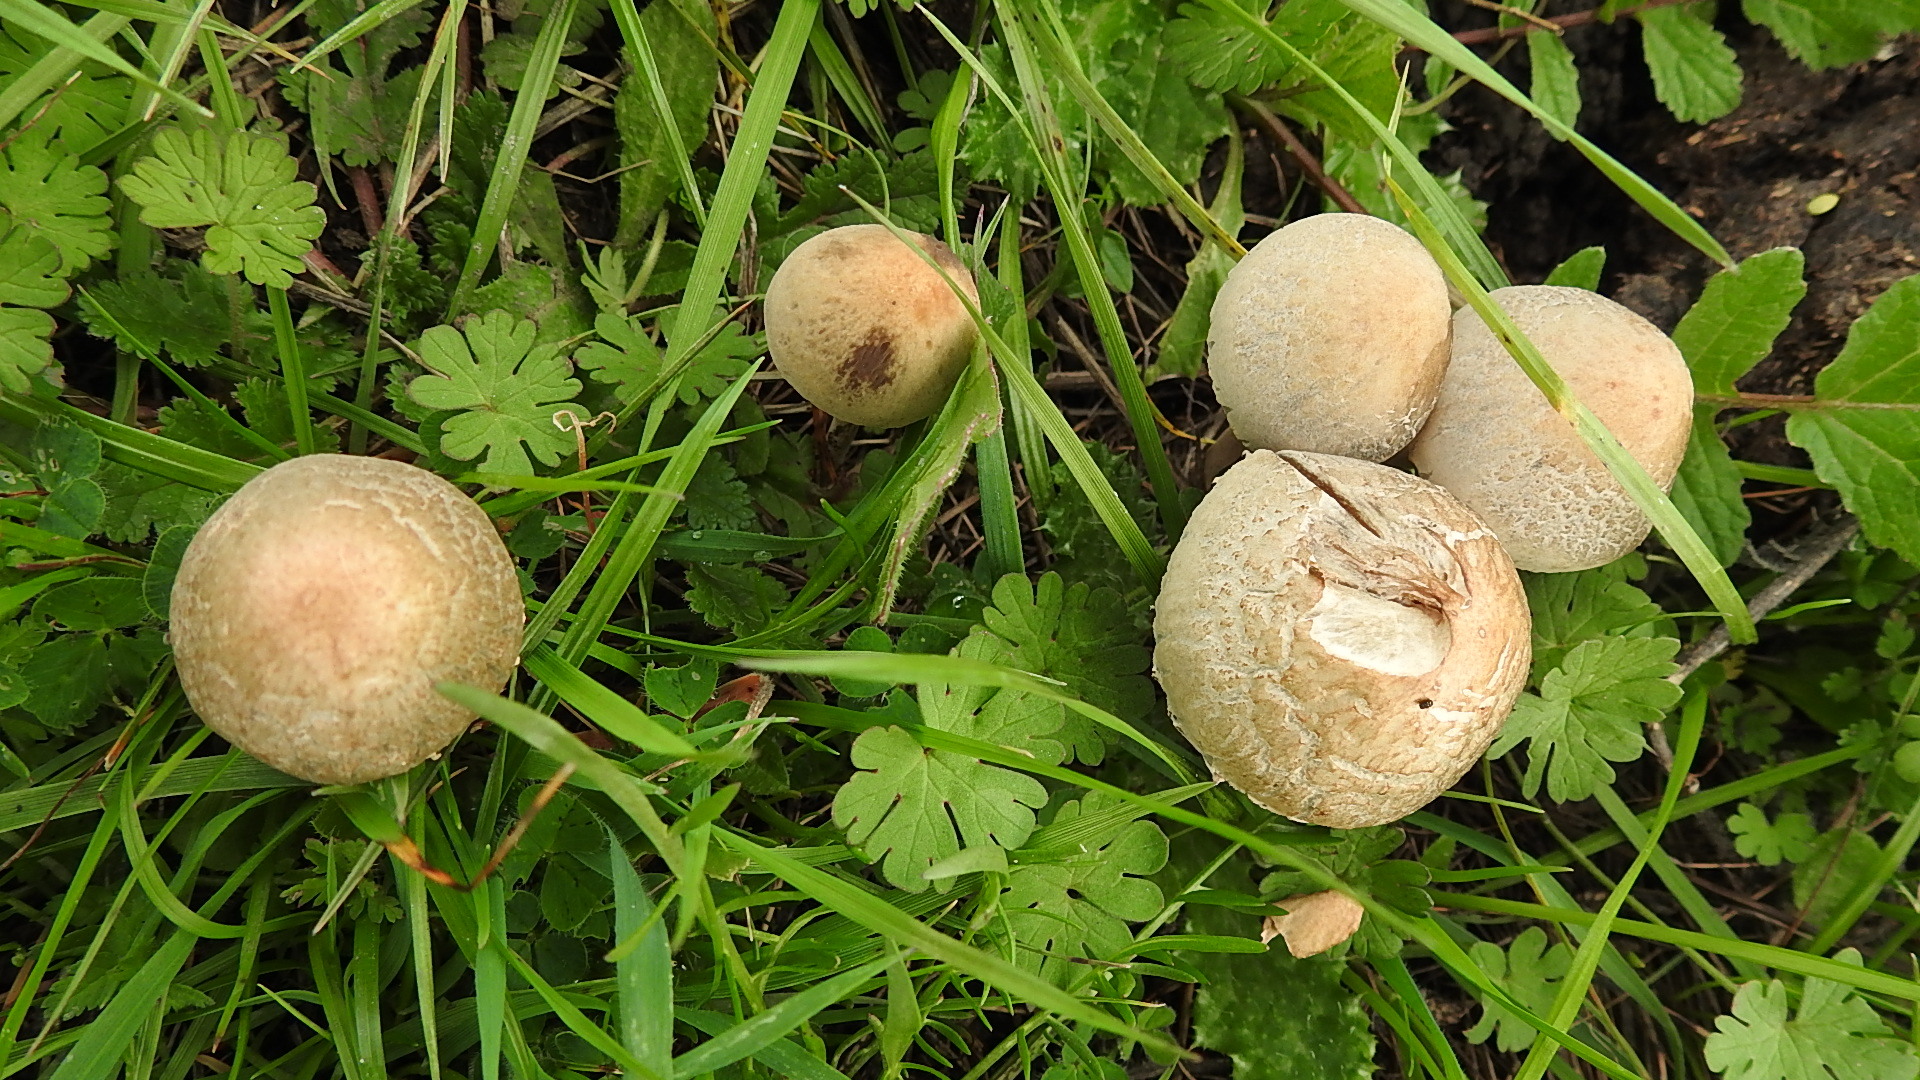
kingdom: Fungi
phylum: Basidiomycota
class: Agaricomycetes
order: Agaricales
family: Bolbitiaceae
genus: Panaeolus
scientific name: Panaeolus papilionaceus
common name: Petticoat mottlegill
